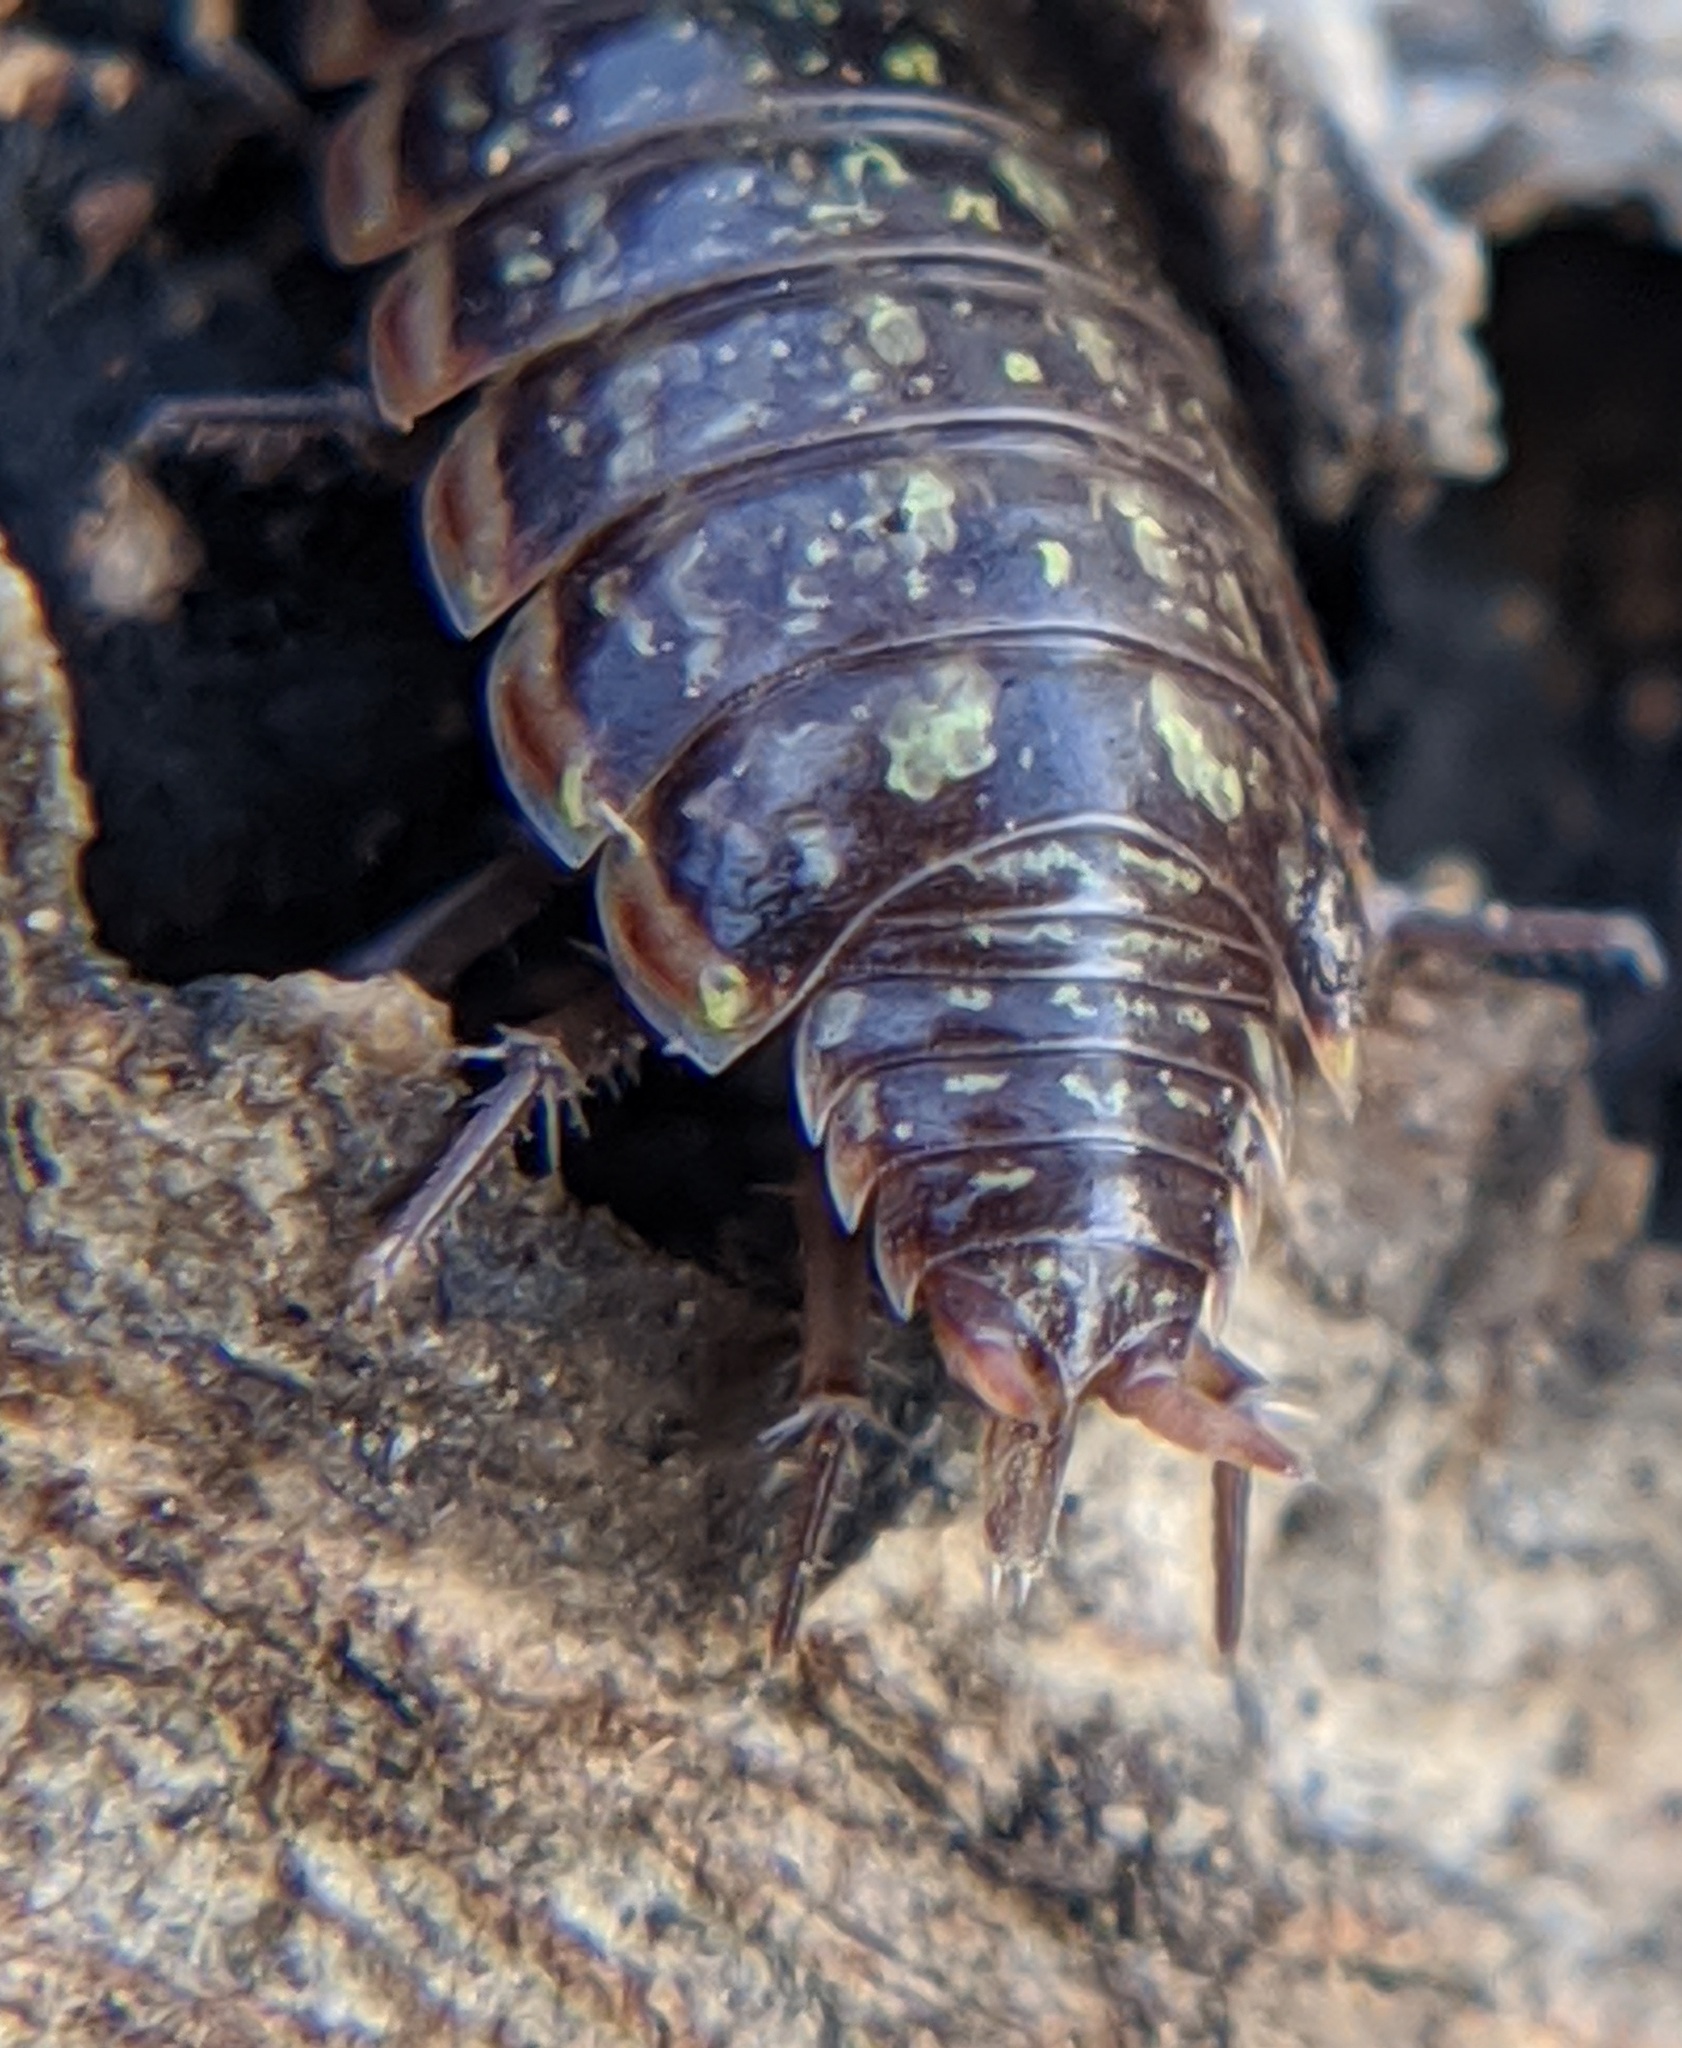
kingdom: Animalia
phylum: Arthropoda
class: Malacostraca
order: Isopoda
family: Philosciidae
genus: Philoscia
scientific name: Philoscia muscorum
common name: Common striped woodlouse
